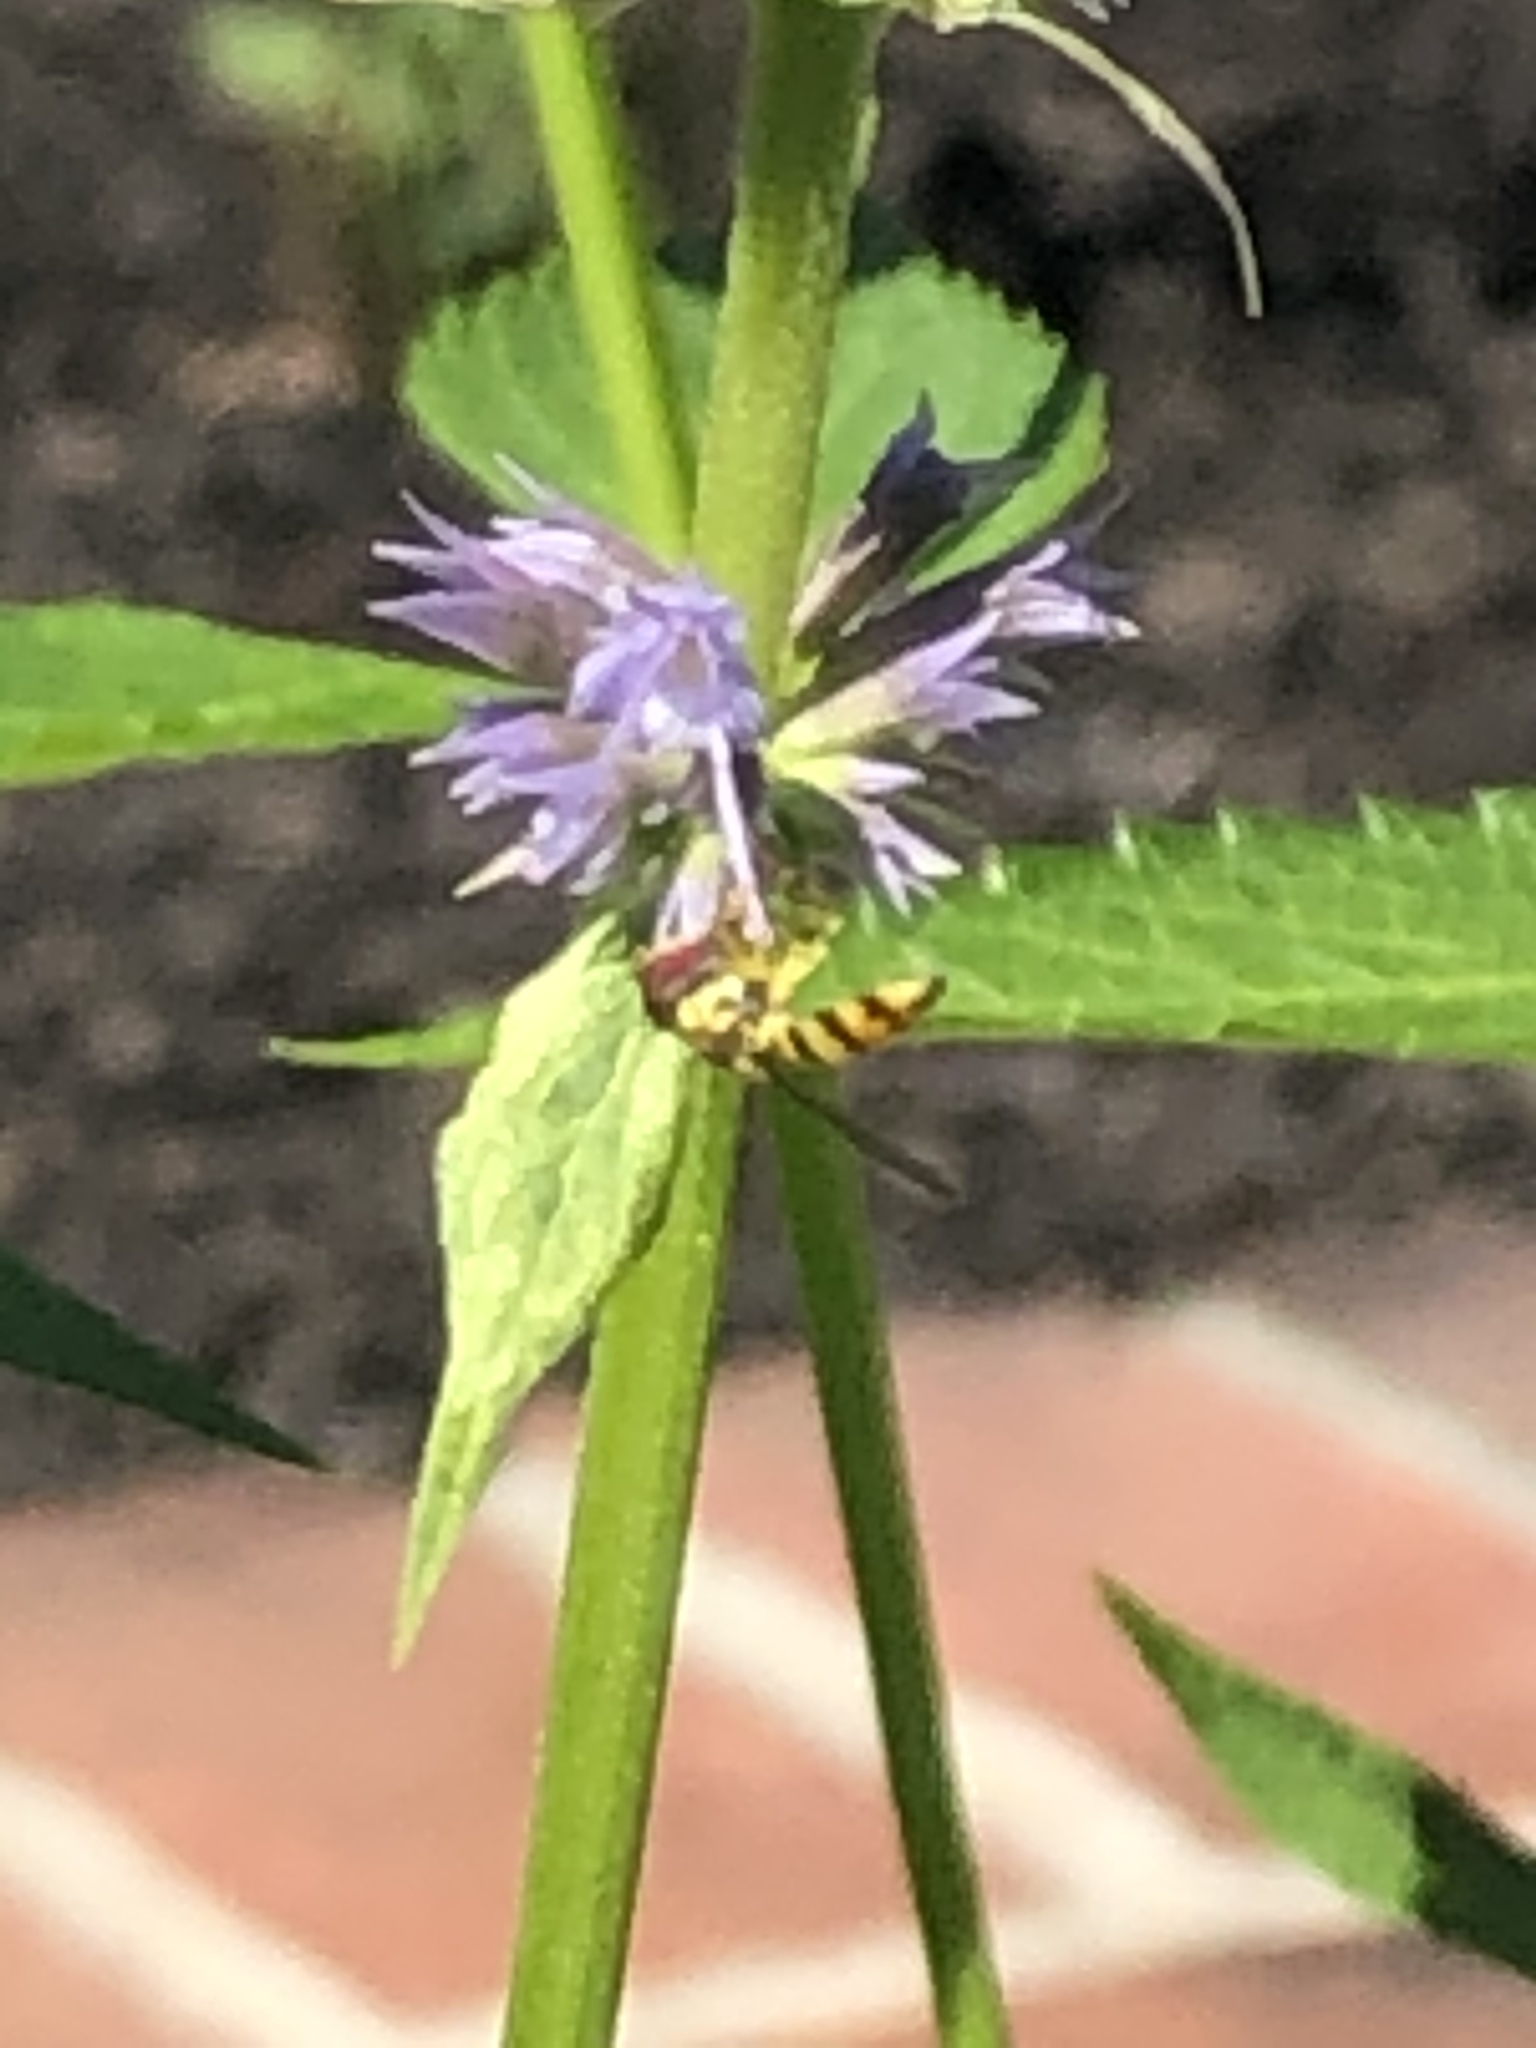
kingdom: Animalia
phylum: Arthropoda
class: Insecta
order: Diptera
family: Syrphidae
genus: Toxomerus
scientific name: Toxomerus geminatus
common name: Eastern calligrapher
